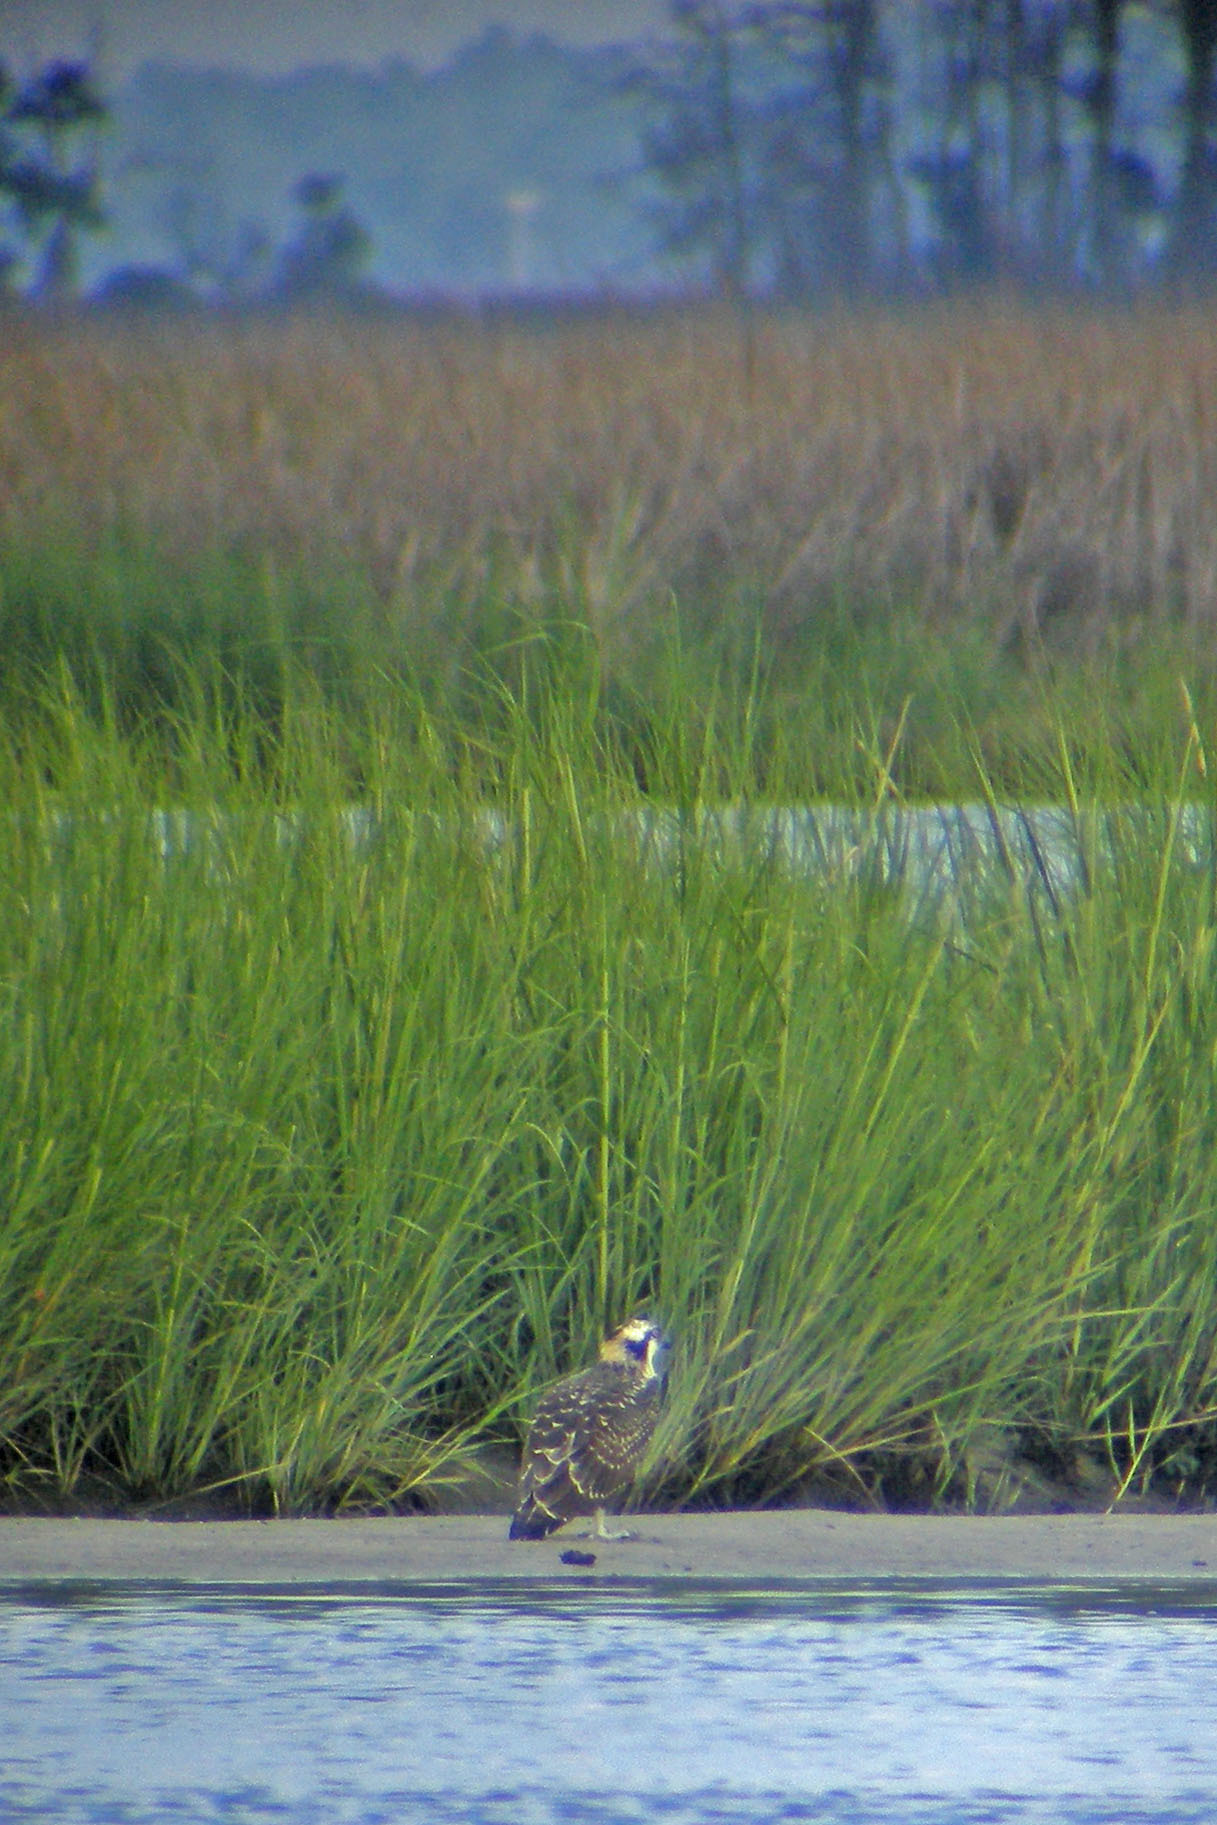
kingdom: Animalia
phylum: Chordata
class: Aves
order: Accipitriformes
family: Pandionidae
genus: Pandion
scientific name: Pandion haliaetus
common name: Osprey
